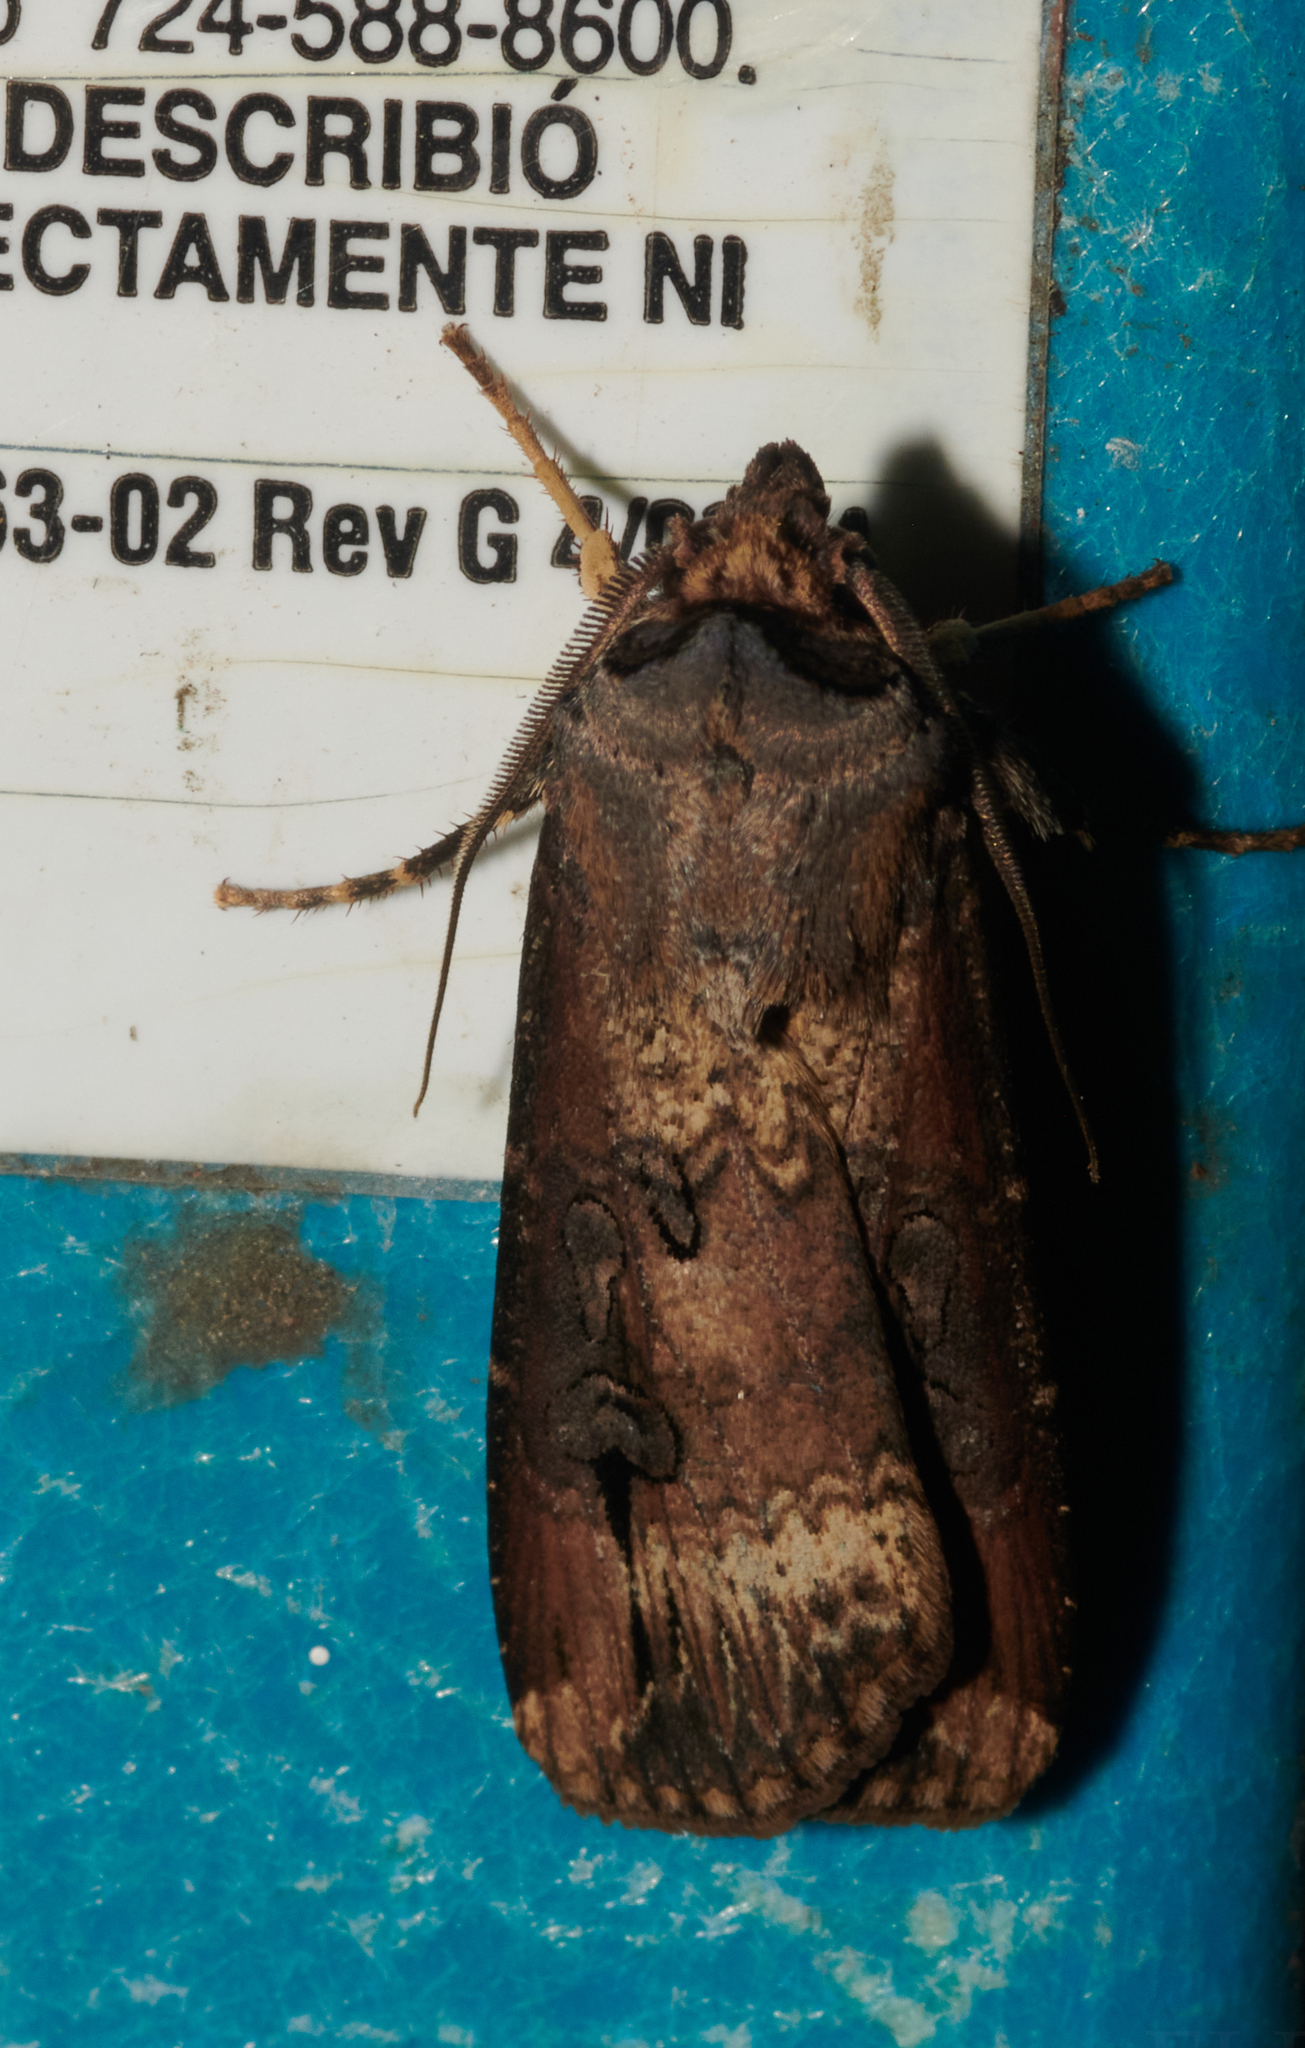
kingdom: Animalia
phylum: Arthropoda
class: Insecta
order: Lepidoptera
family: Noctuidae
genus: Agrotis
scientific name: Agrotis ipsilon
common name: Dark sword-grass
